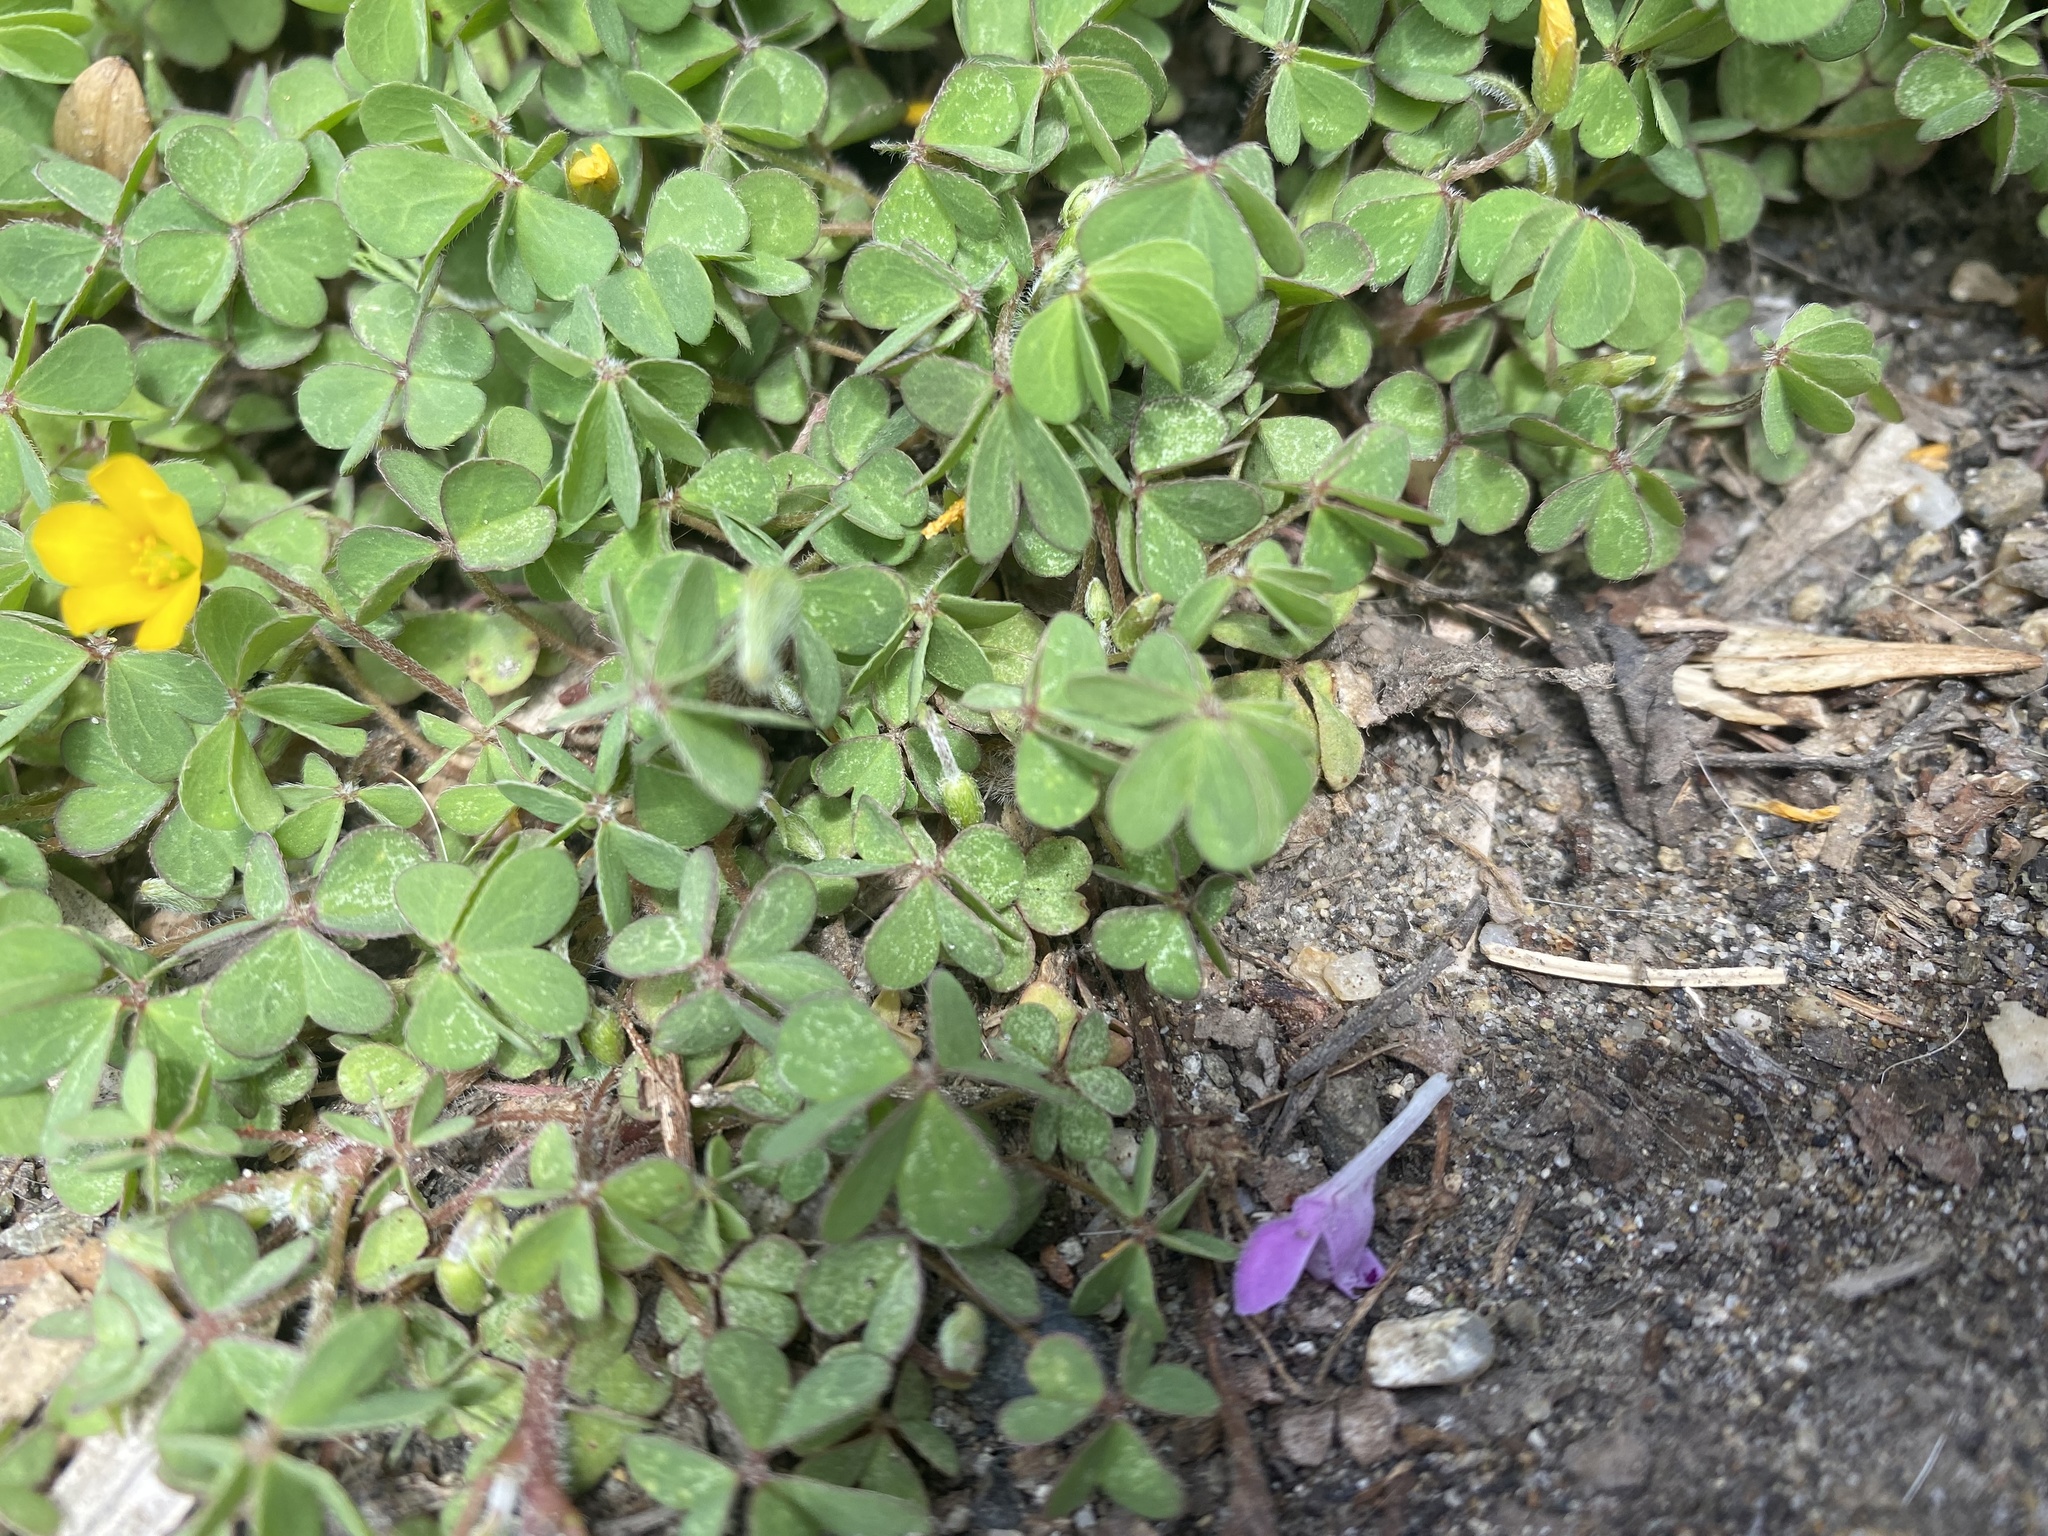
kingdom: Plantae
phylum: Tracheophyta
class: Magnoliopsida
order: Oxalidales
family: Oxalidaceae
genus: Oxalis
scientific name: Oxalis corniculata
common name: Procumbent yellow-sorrel
